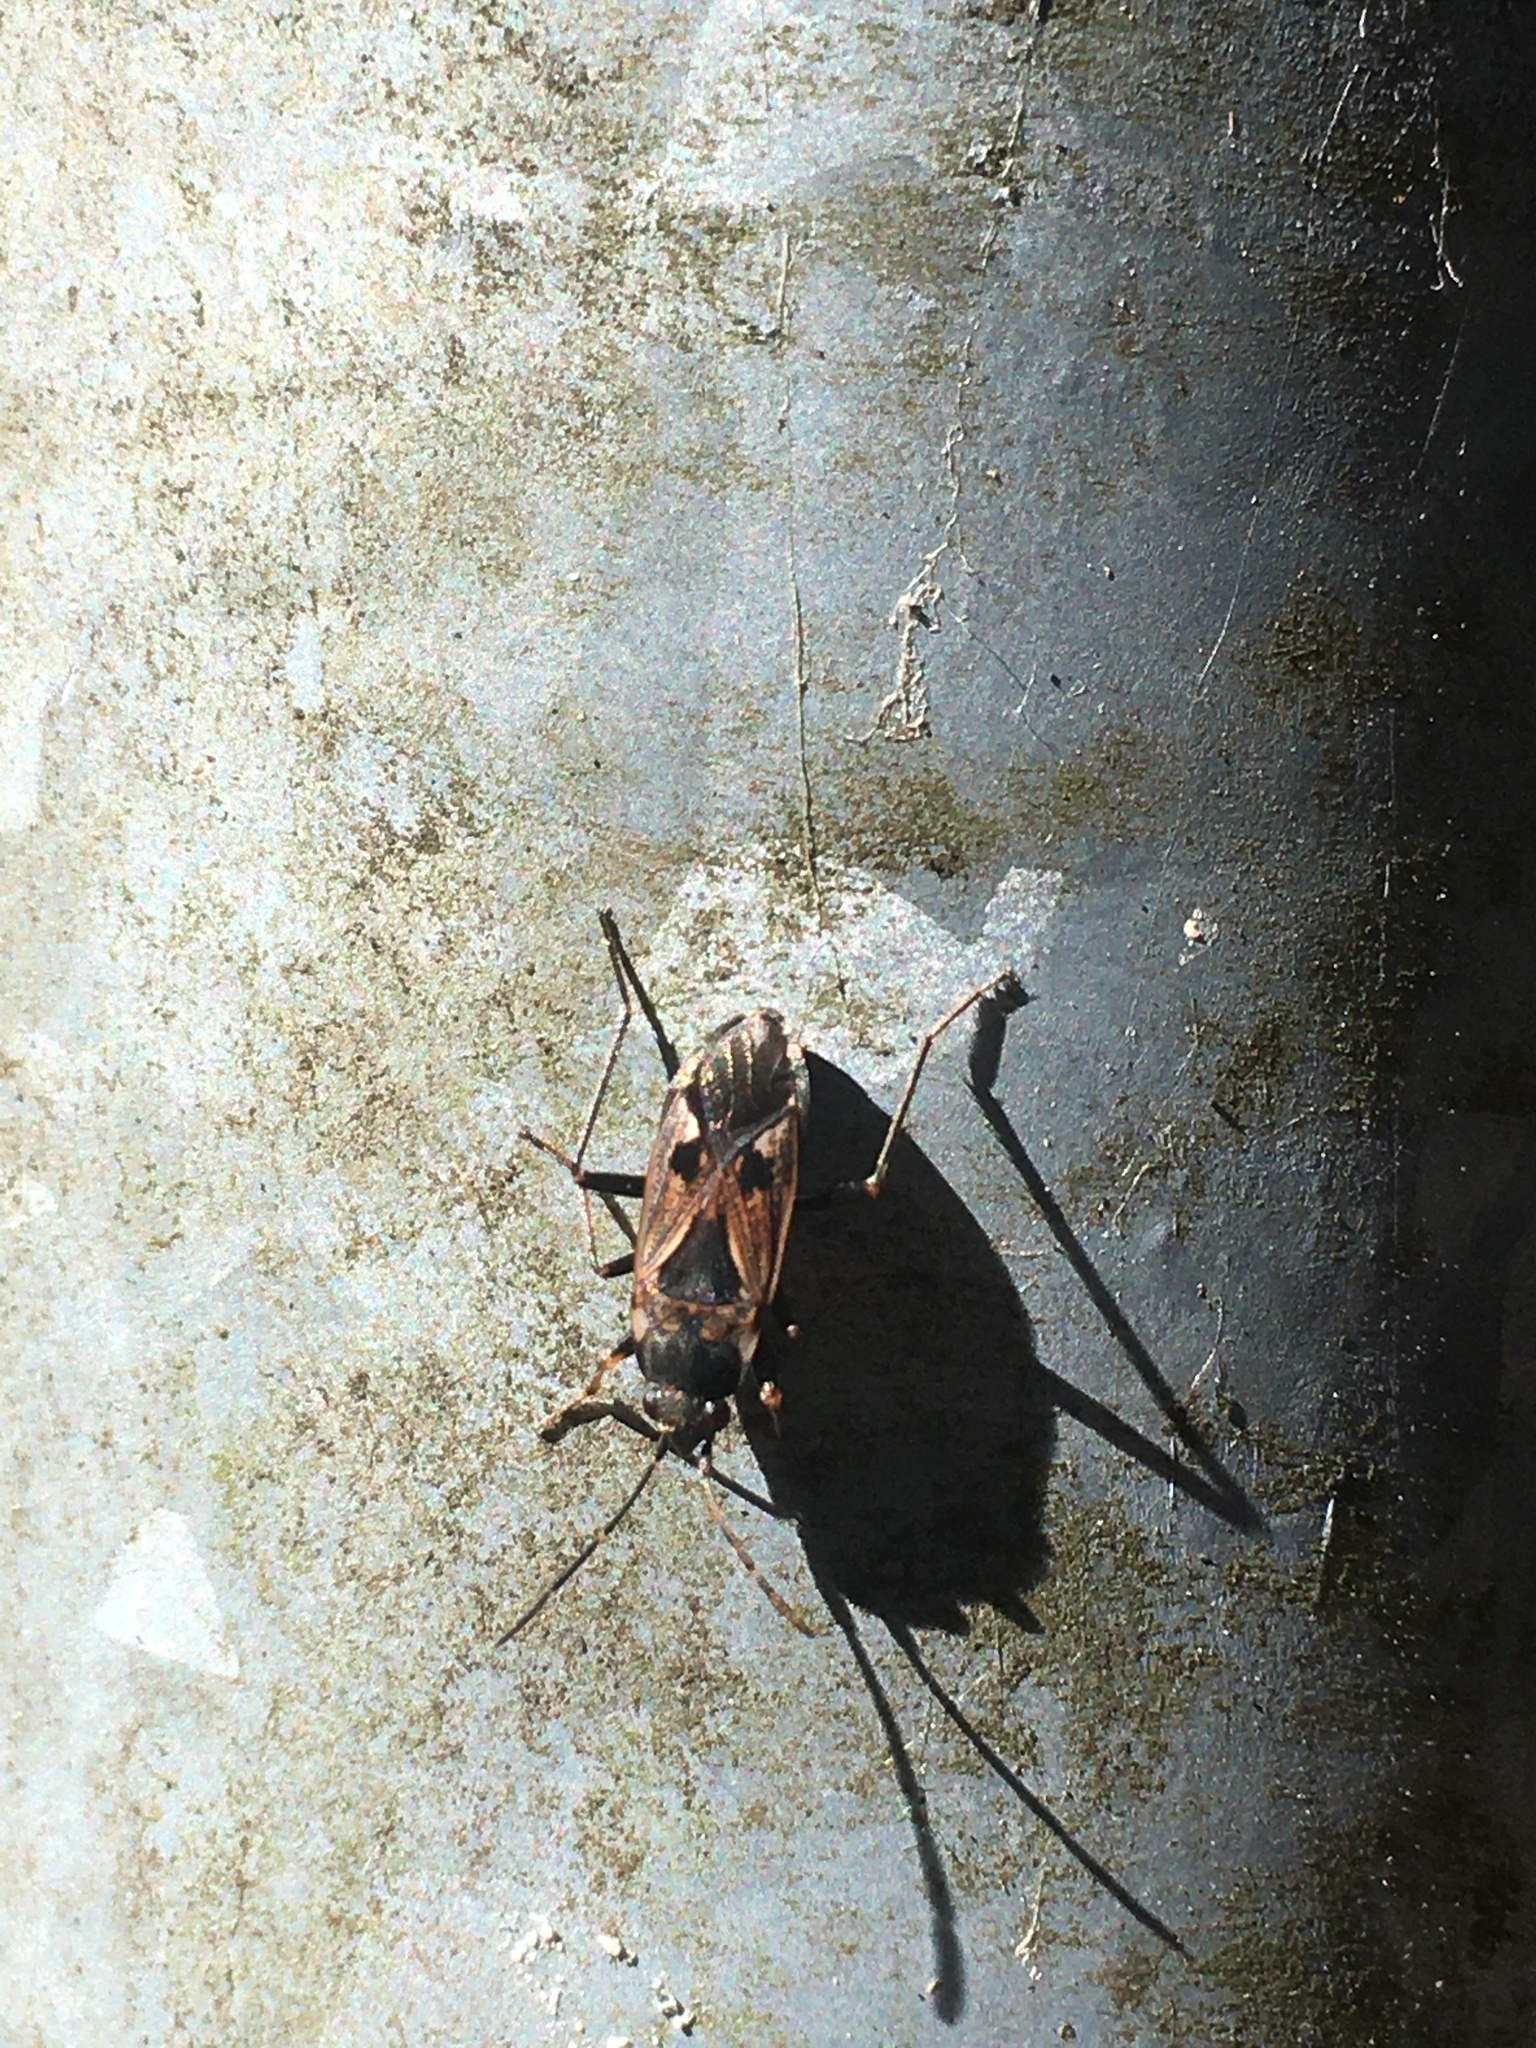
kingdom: Animalia
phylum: Arthropoda
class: Insecta
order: Hemiptera
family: Rhyparochromidae
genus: Rhyparochromus
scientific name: Rhyparochromus vulgaris
